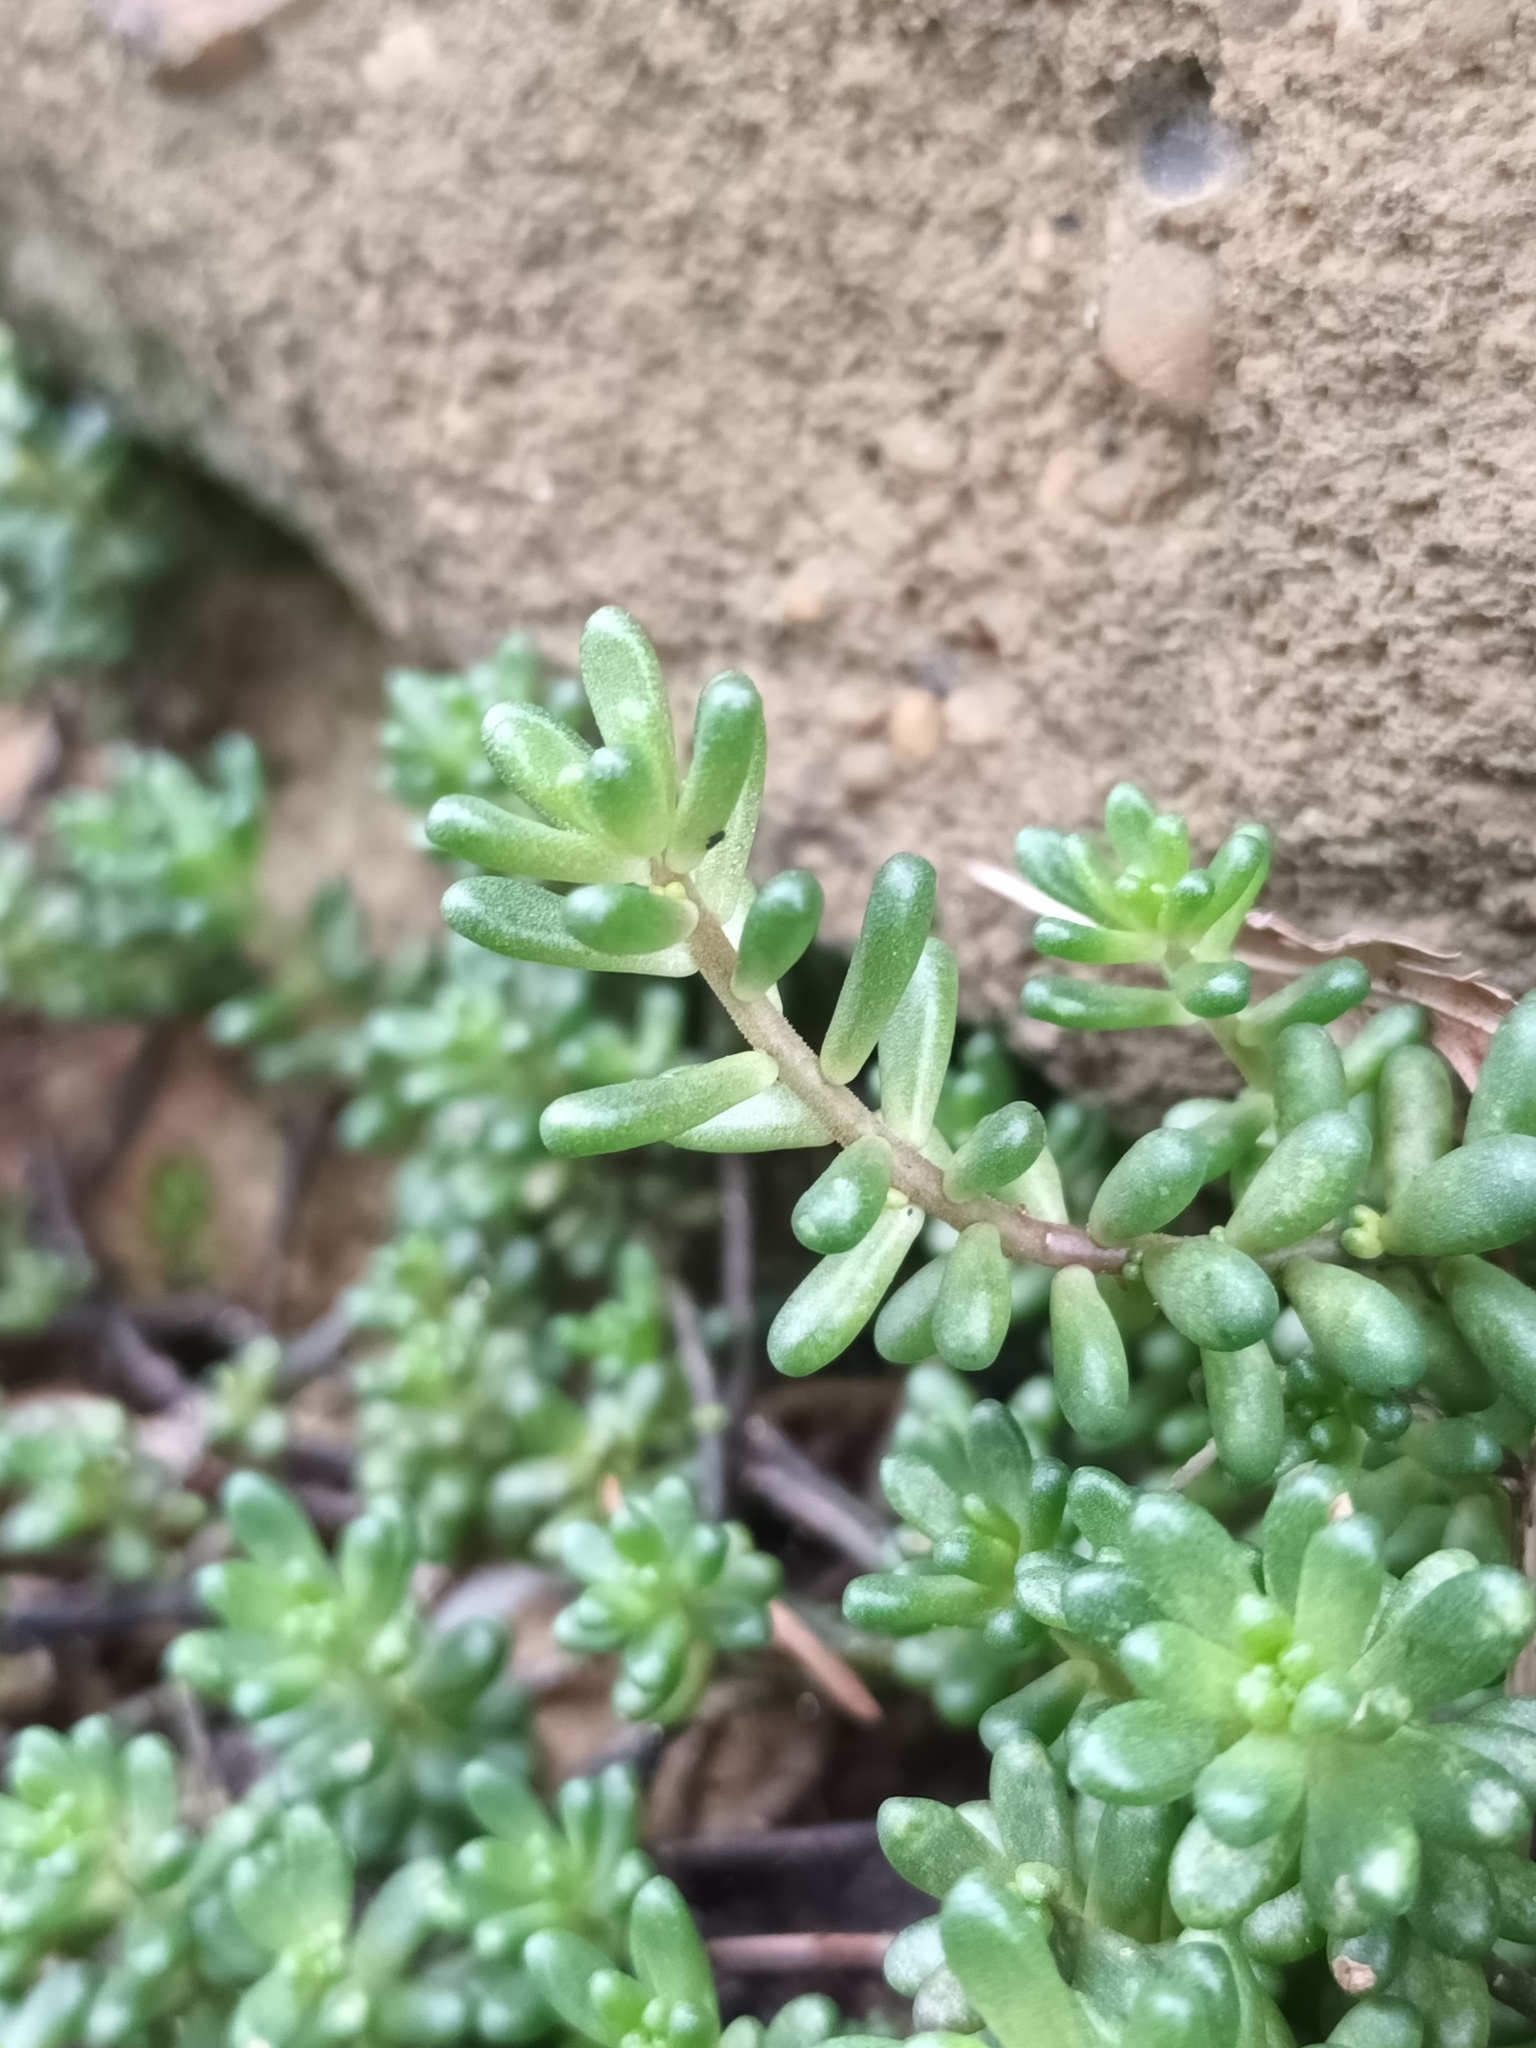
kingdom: Plantae
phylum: Tracheophyta
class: Magnoliopsida
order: Saxifragales
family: Crassulaceae
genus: Sedum
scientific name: Sedum album
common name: White stonecrop
